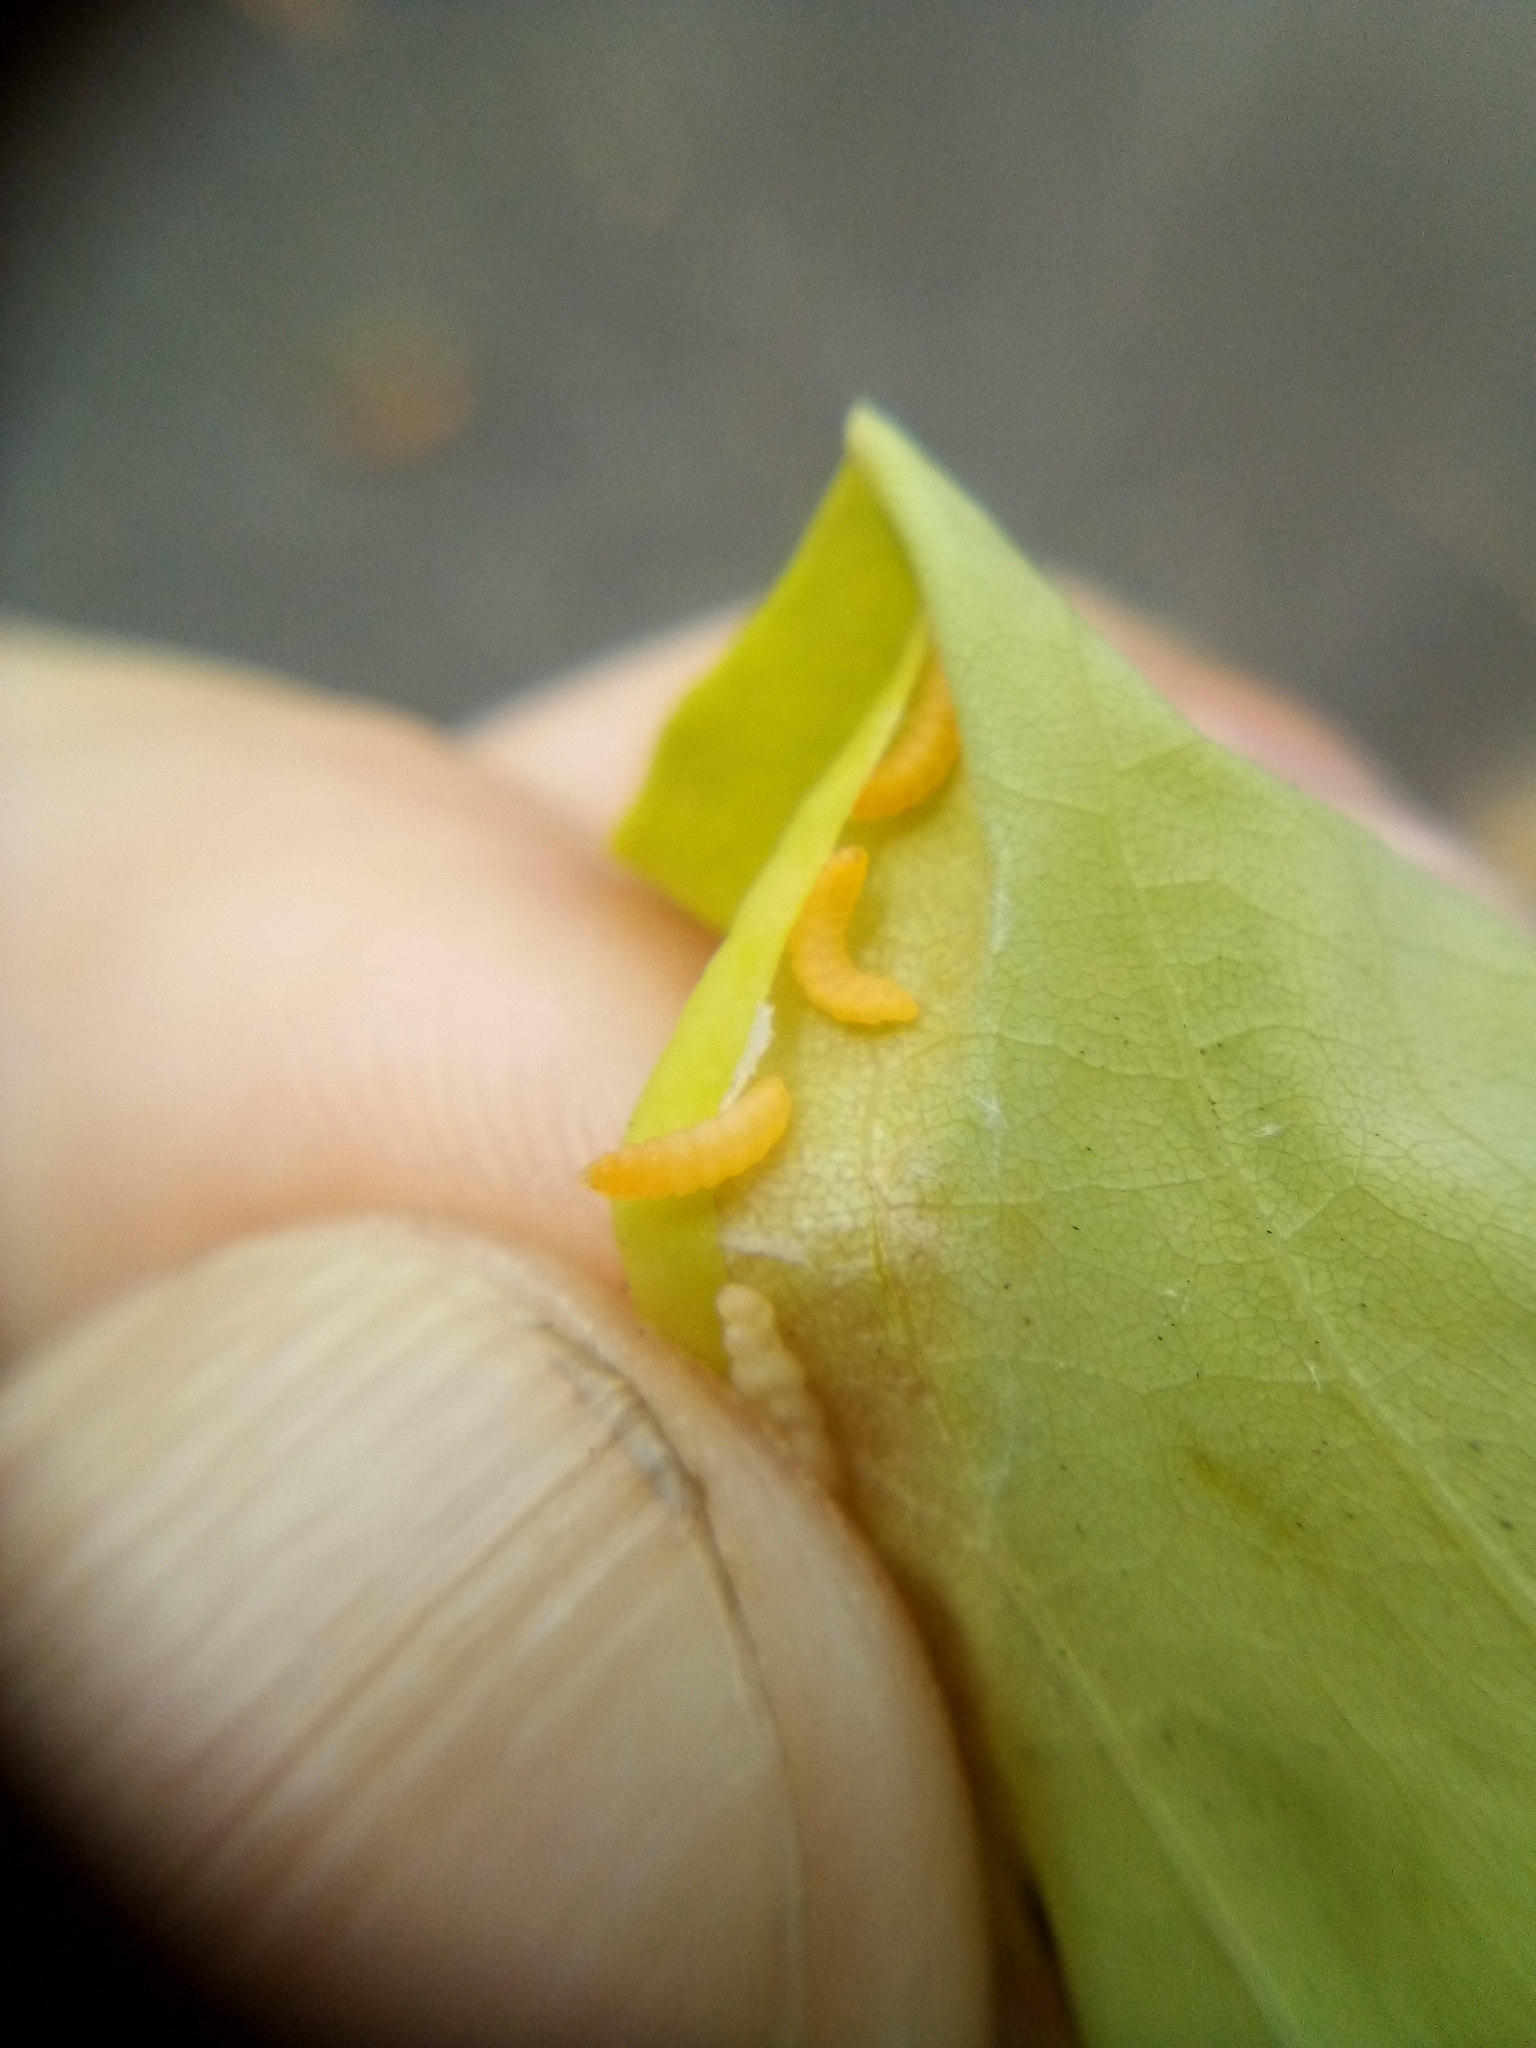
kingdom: Animalia
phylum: Arthropoda
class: Insecta
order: Diptera
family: Cecidomyiidae
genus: Obolodiplosis
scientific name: Obolodiplosis robiniae
